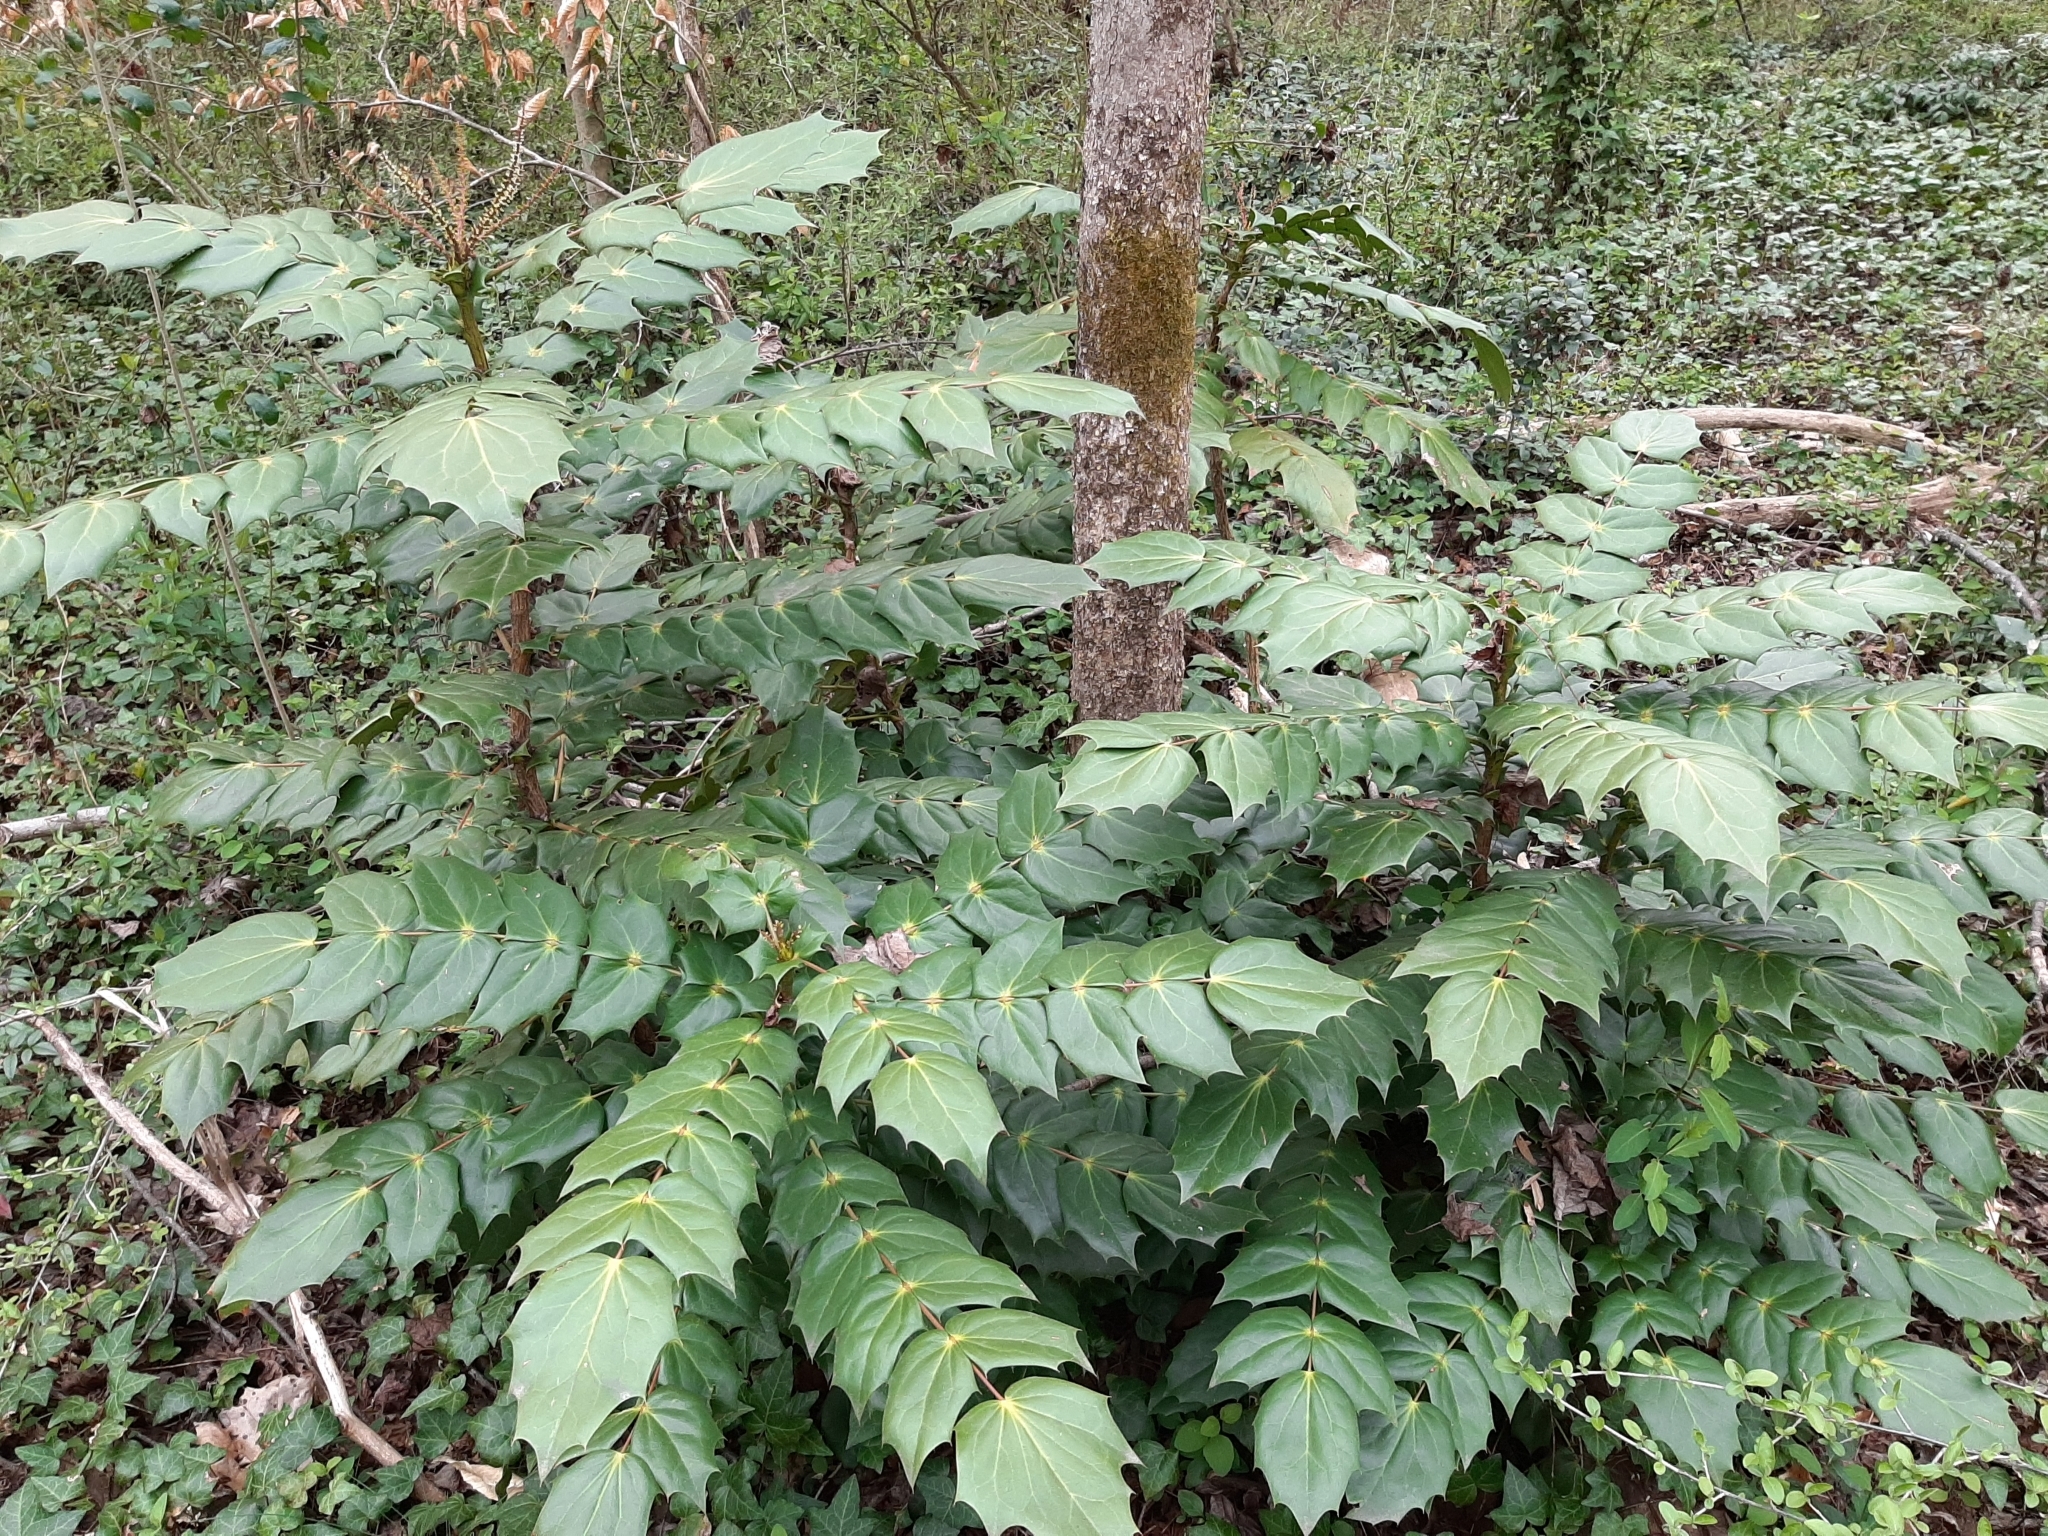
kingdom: Plantae
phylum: Tracheophyta
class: Magnoliopsida
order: Ranunculales
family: Berberidaceae
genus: Mahonia
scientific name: Mahonia bealei
